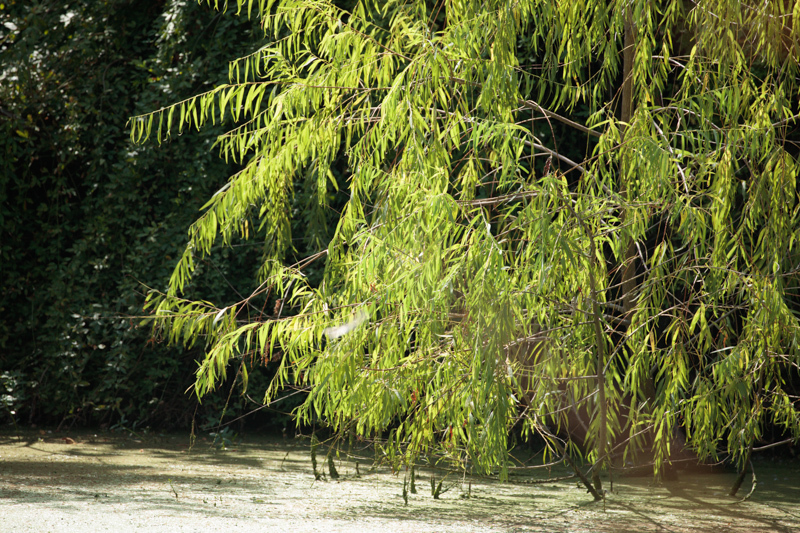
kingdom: Plantae
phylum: Tracheophyta
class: Magnoliopsida
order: Malpighiales
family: Salicaceae
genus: Salix
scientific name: Salix nigra
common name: Black willow
